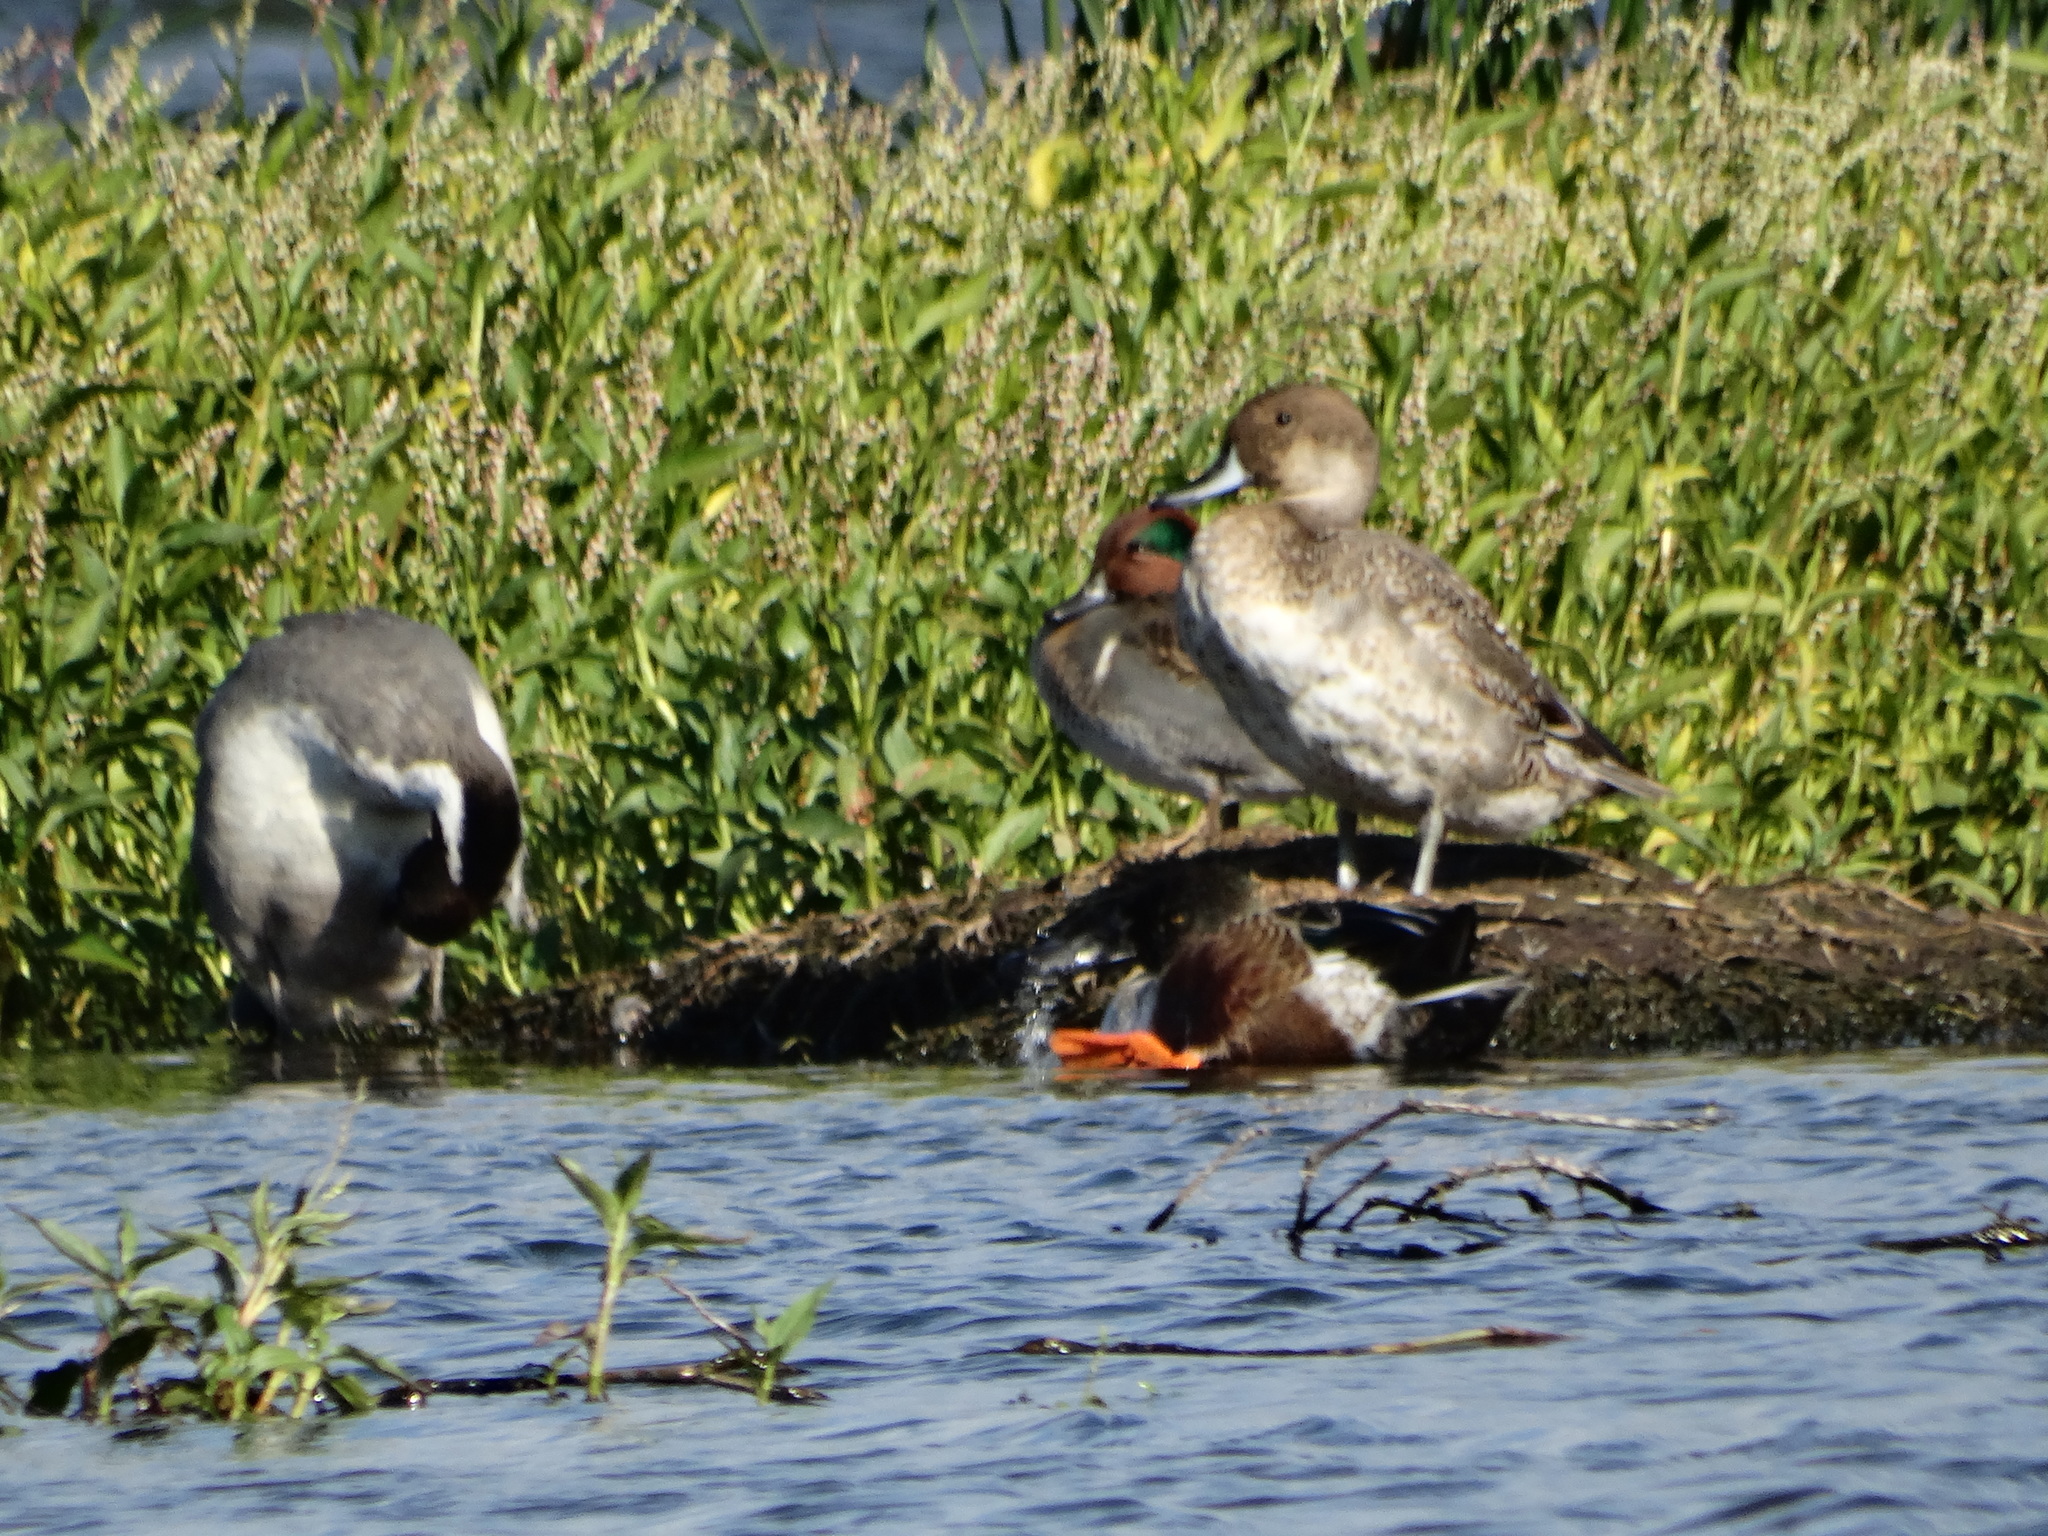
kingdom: Animalia
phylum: Chordata
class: Aves
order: Anseriformes
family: Anatidae
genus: Anas
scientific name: Anas carolinensis
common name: Green-winged teal
